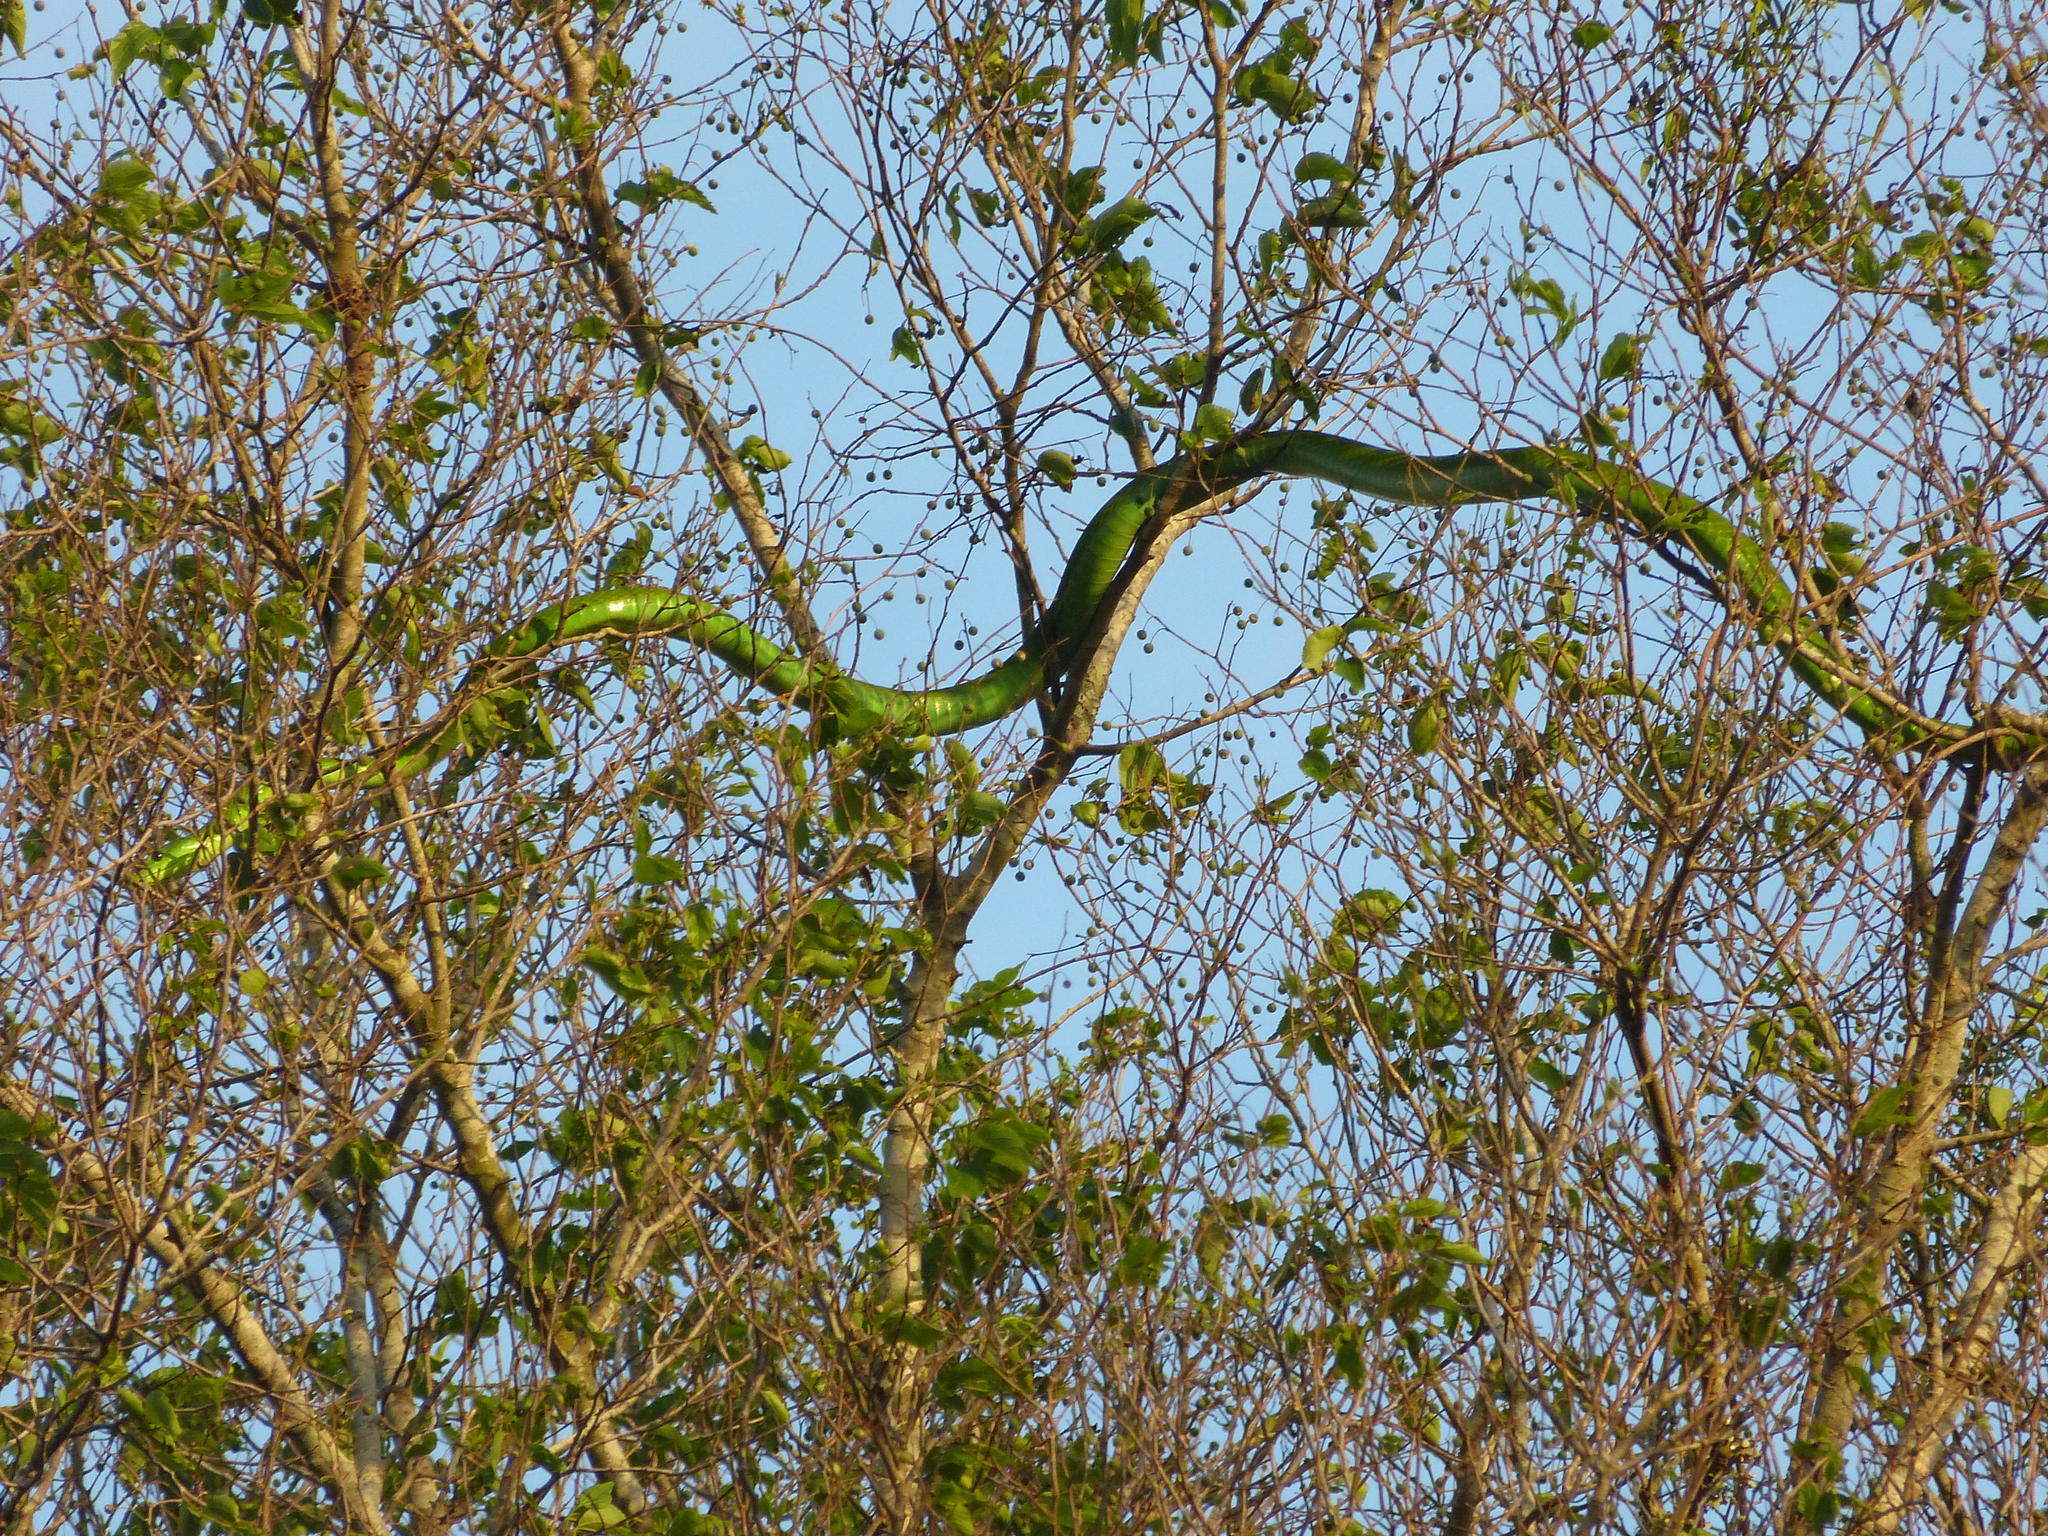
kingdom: Animalia
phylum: Chordata
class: Squamata
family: Elapidae
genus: Dendroaspis
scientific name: Dendroaspis angusticeps
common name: Green mamba
